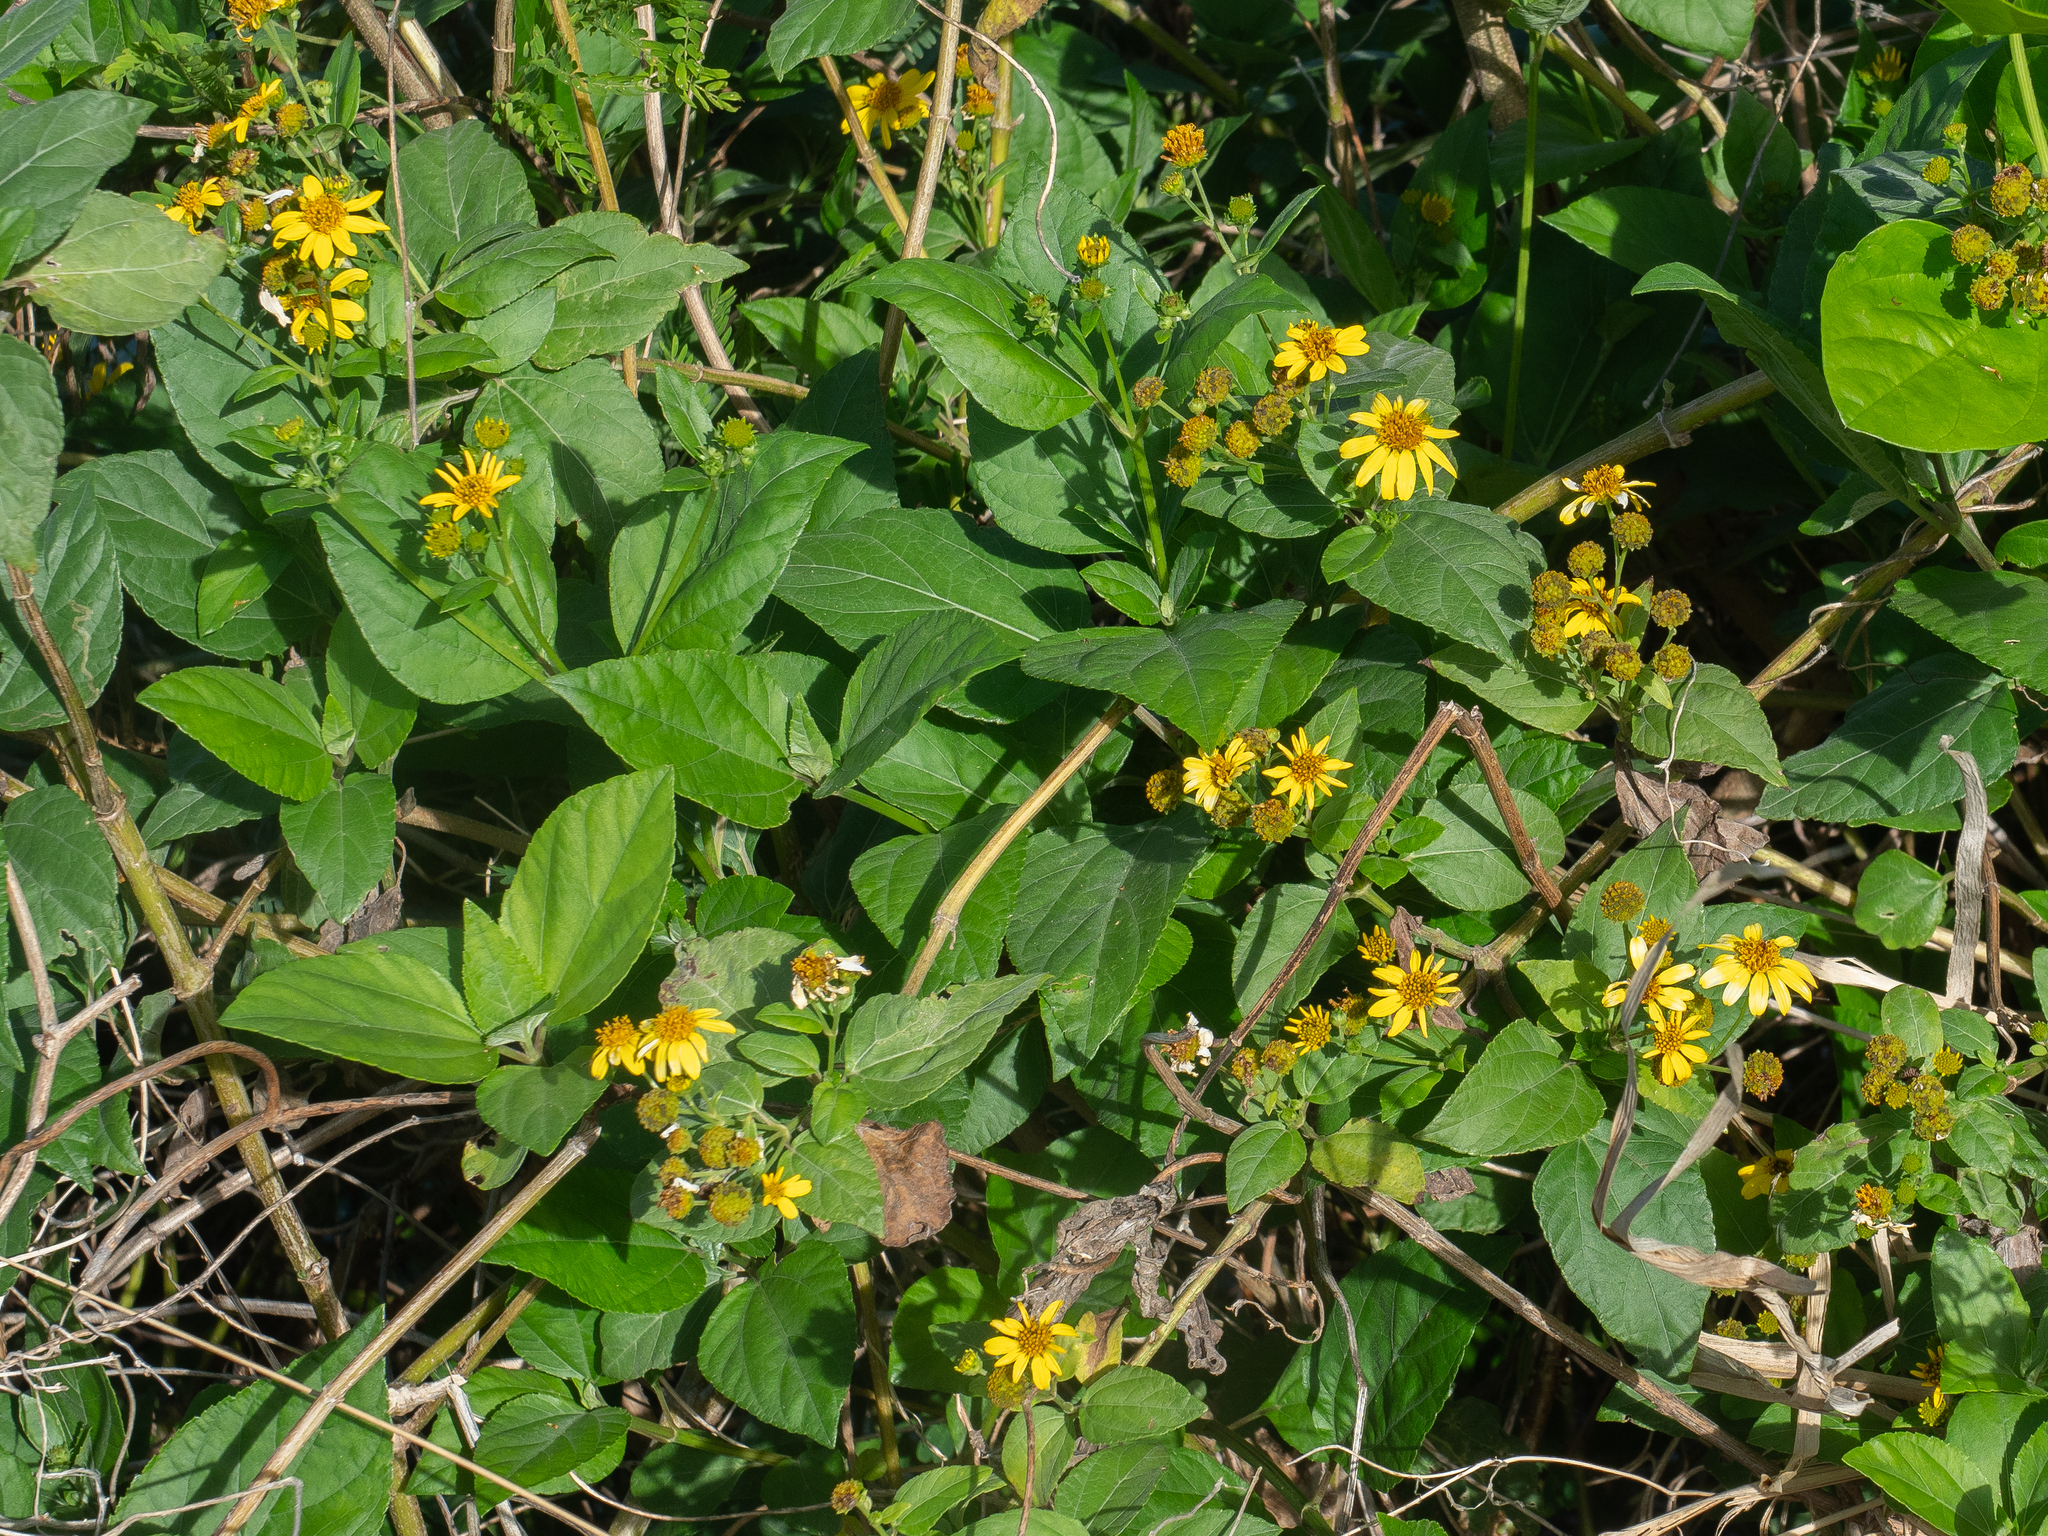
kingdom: Plantae
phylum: Tracheophyta
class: Magnoliopsida
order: Asterales
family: Asteraceae
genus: Wollastonia
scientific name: Wollastonia biflora
